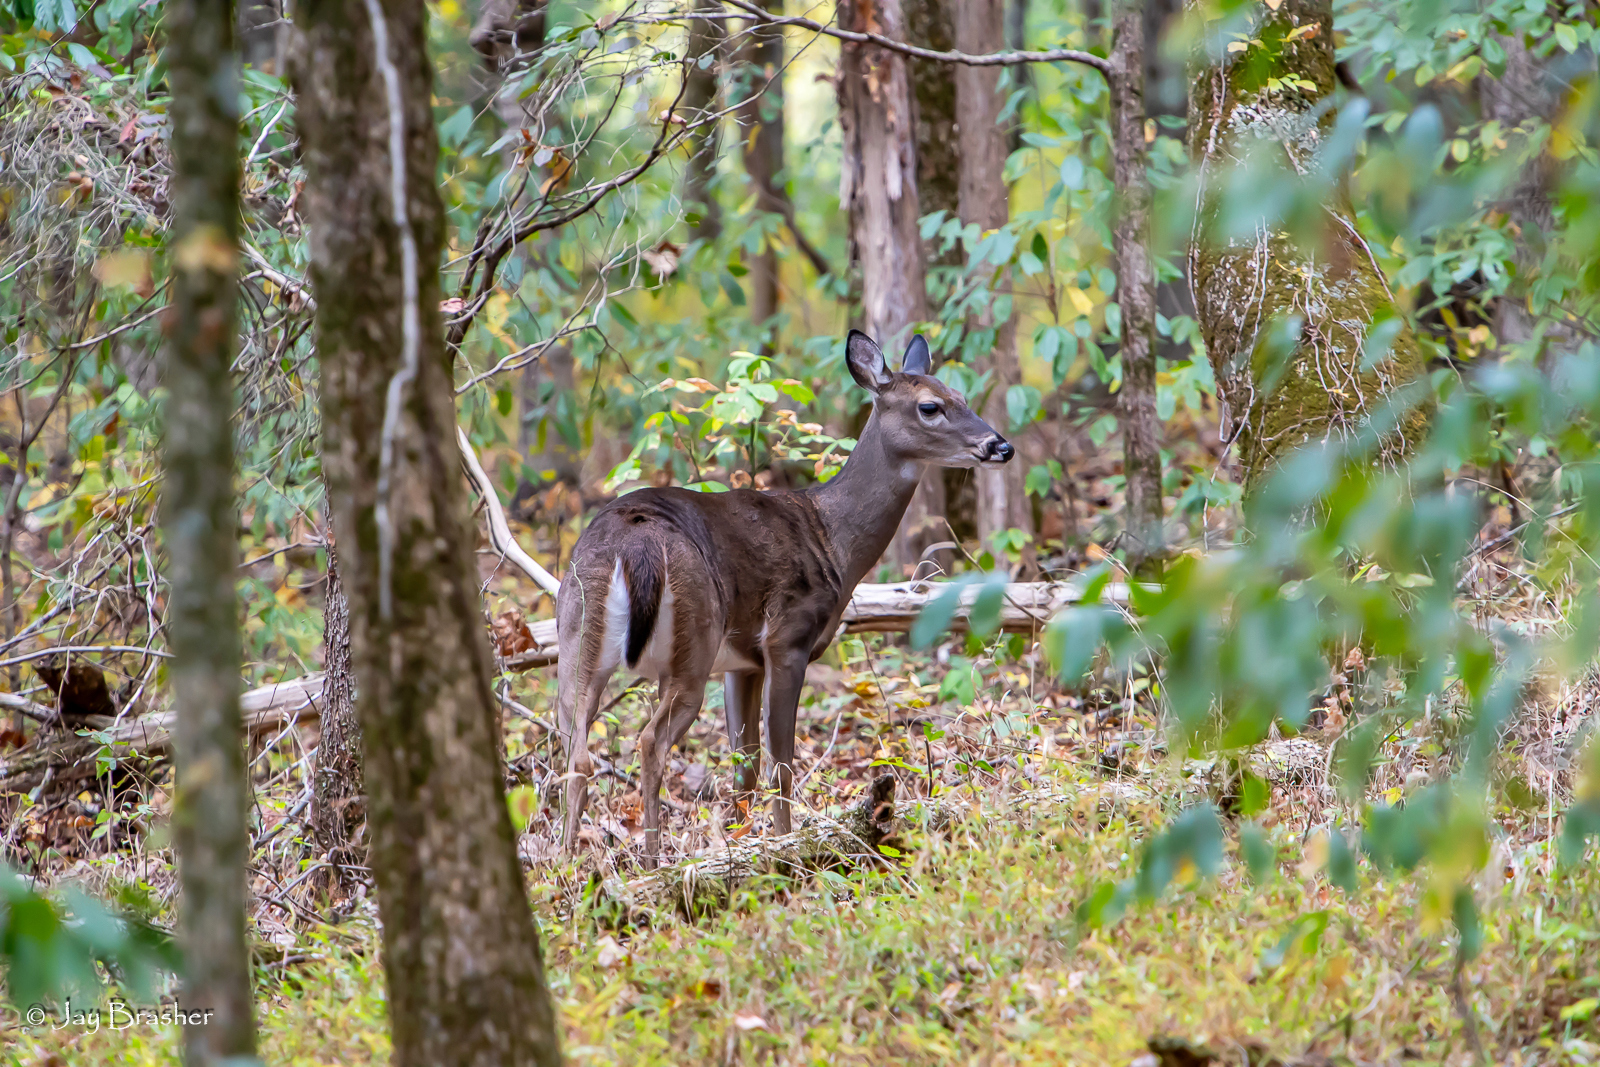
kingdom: Animalia
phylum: Chordata
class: Mammalia
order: Artiodactyla
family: Cervidae
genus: Odocoileus
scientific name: Odocoileus virginianus
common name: White-tailed deer
